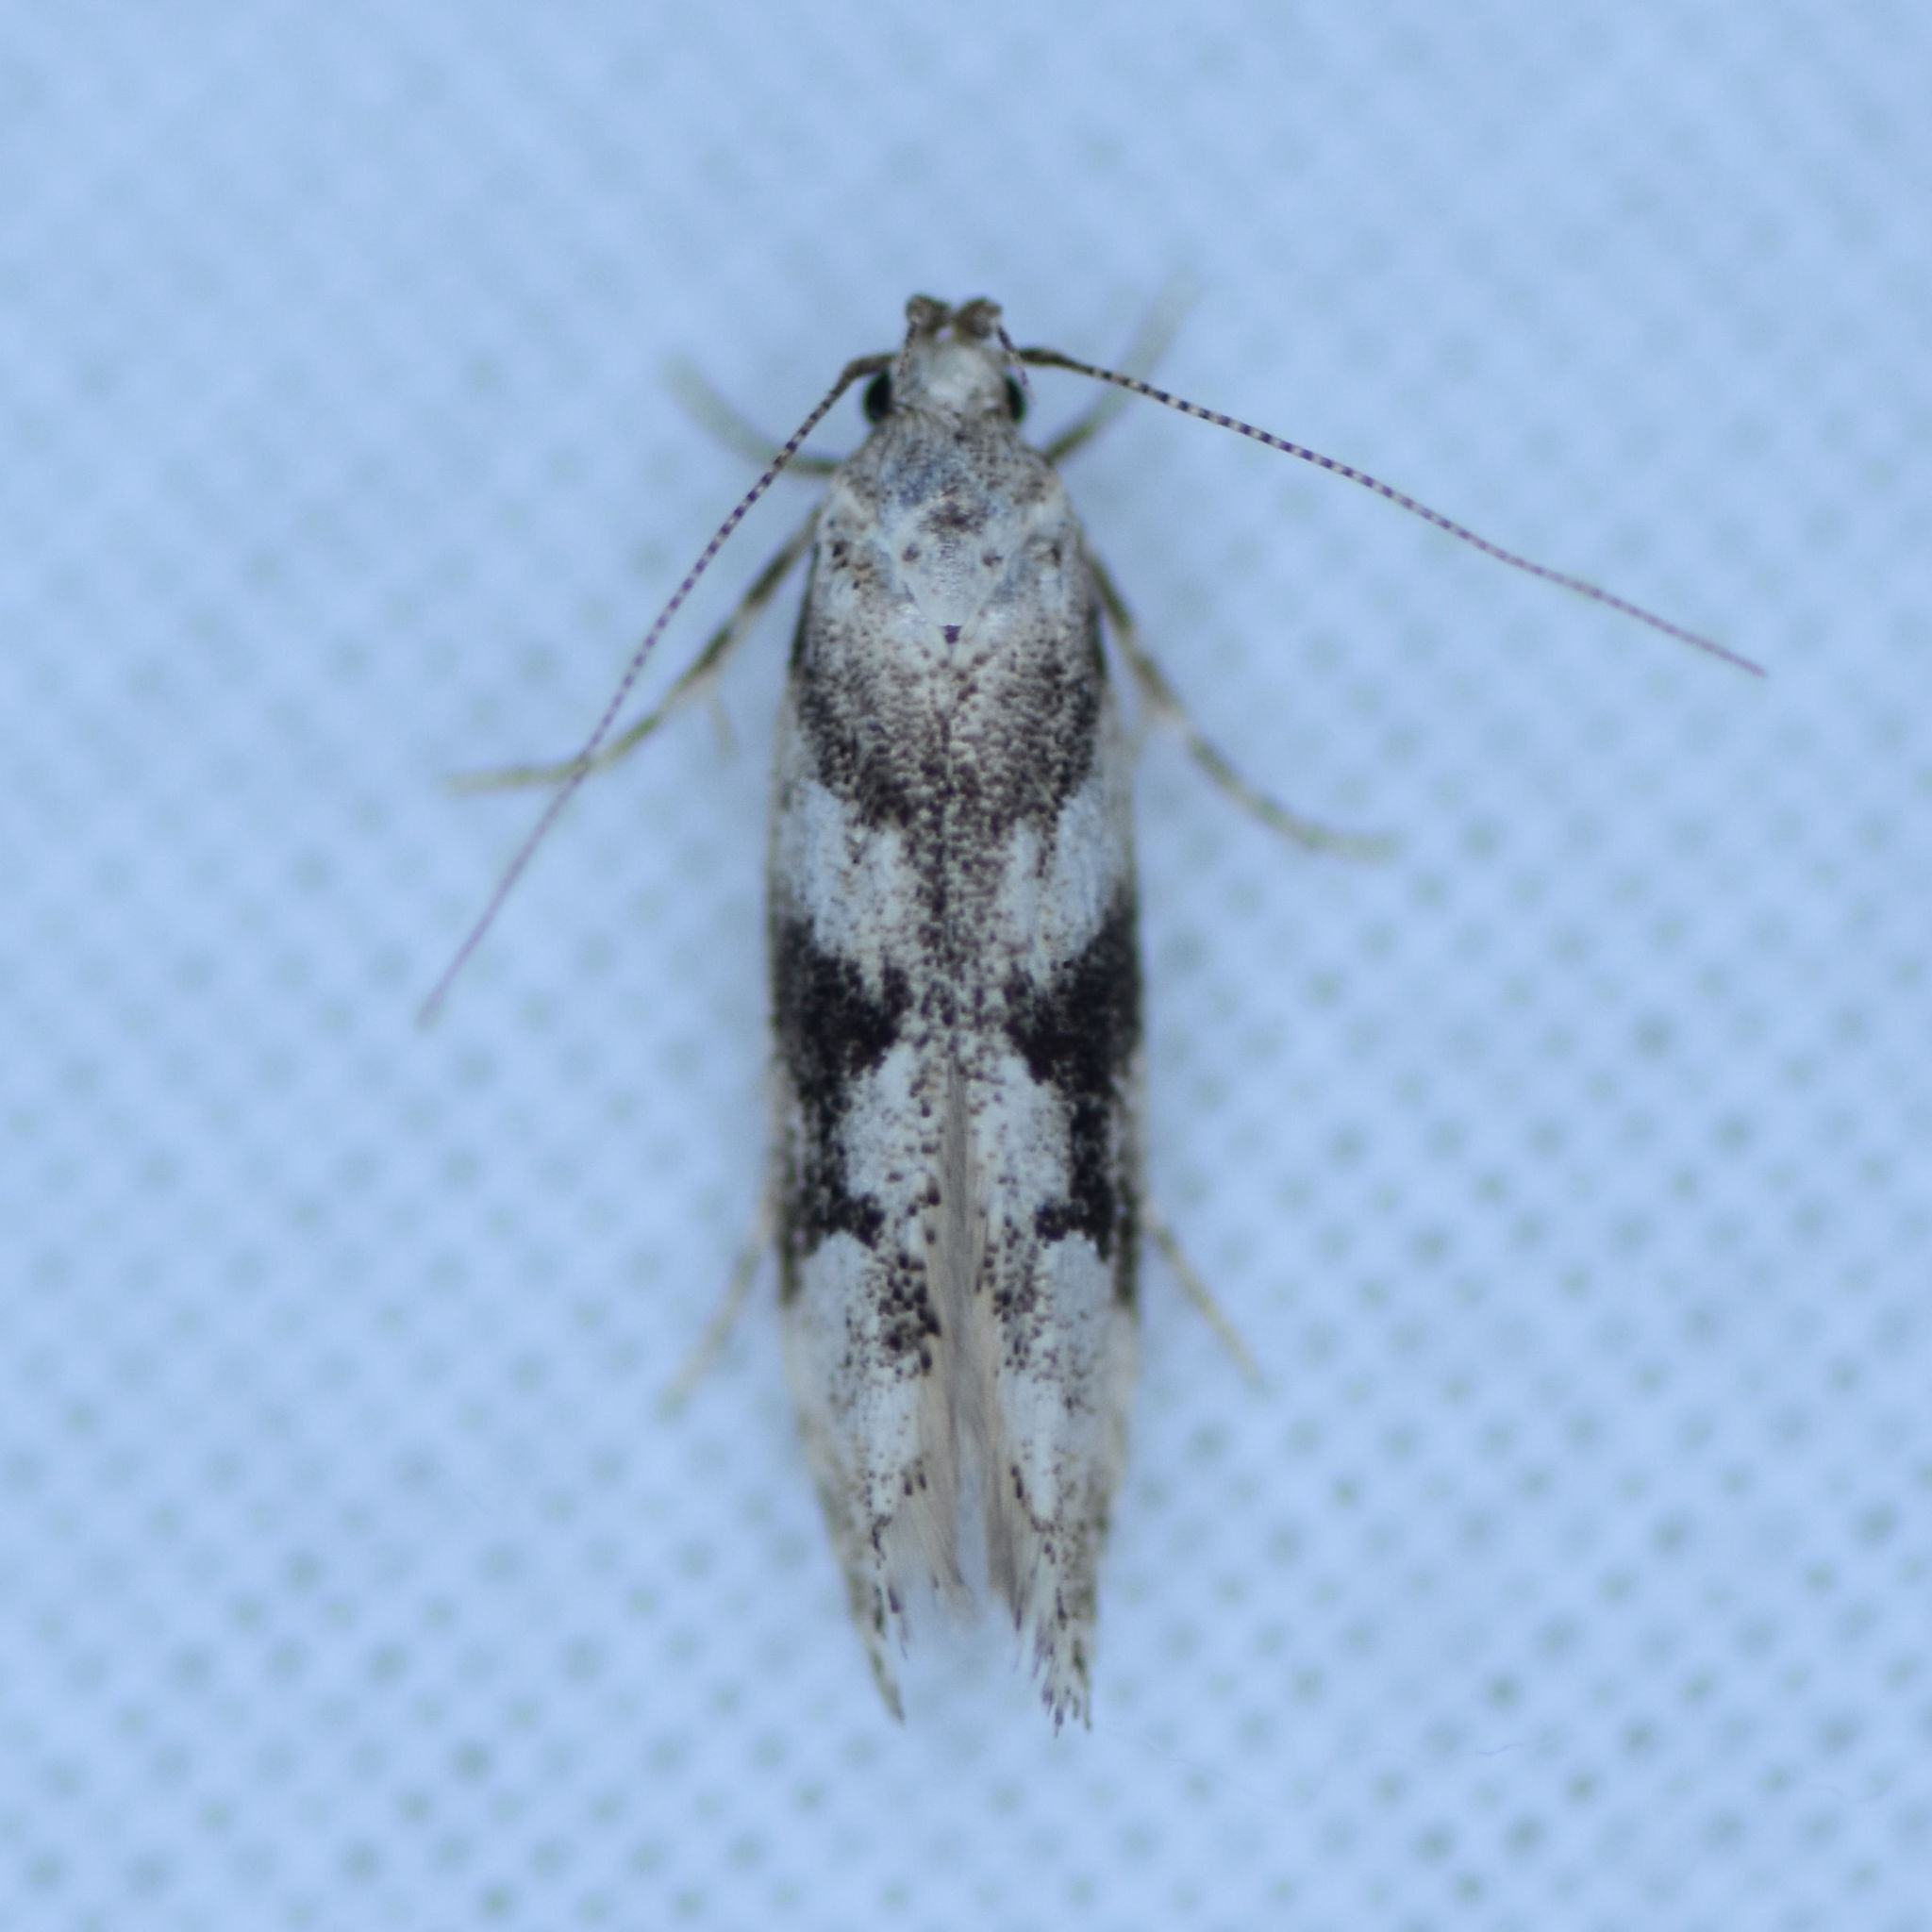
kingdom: Animalia
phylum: Arthropoda
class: Insecta
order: Lepidoptera
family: Gelechiidae
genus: Coleotechnites
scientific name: Coleotechnites atrupictella
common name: Spruce micromoth
